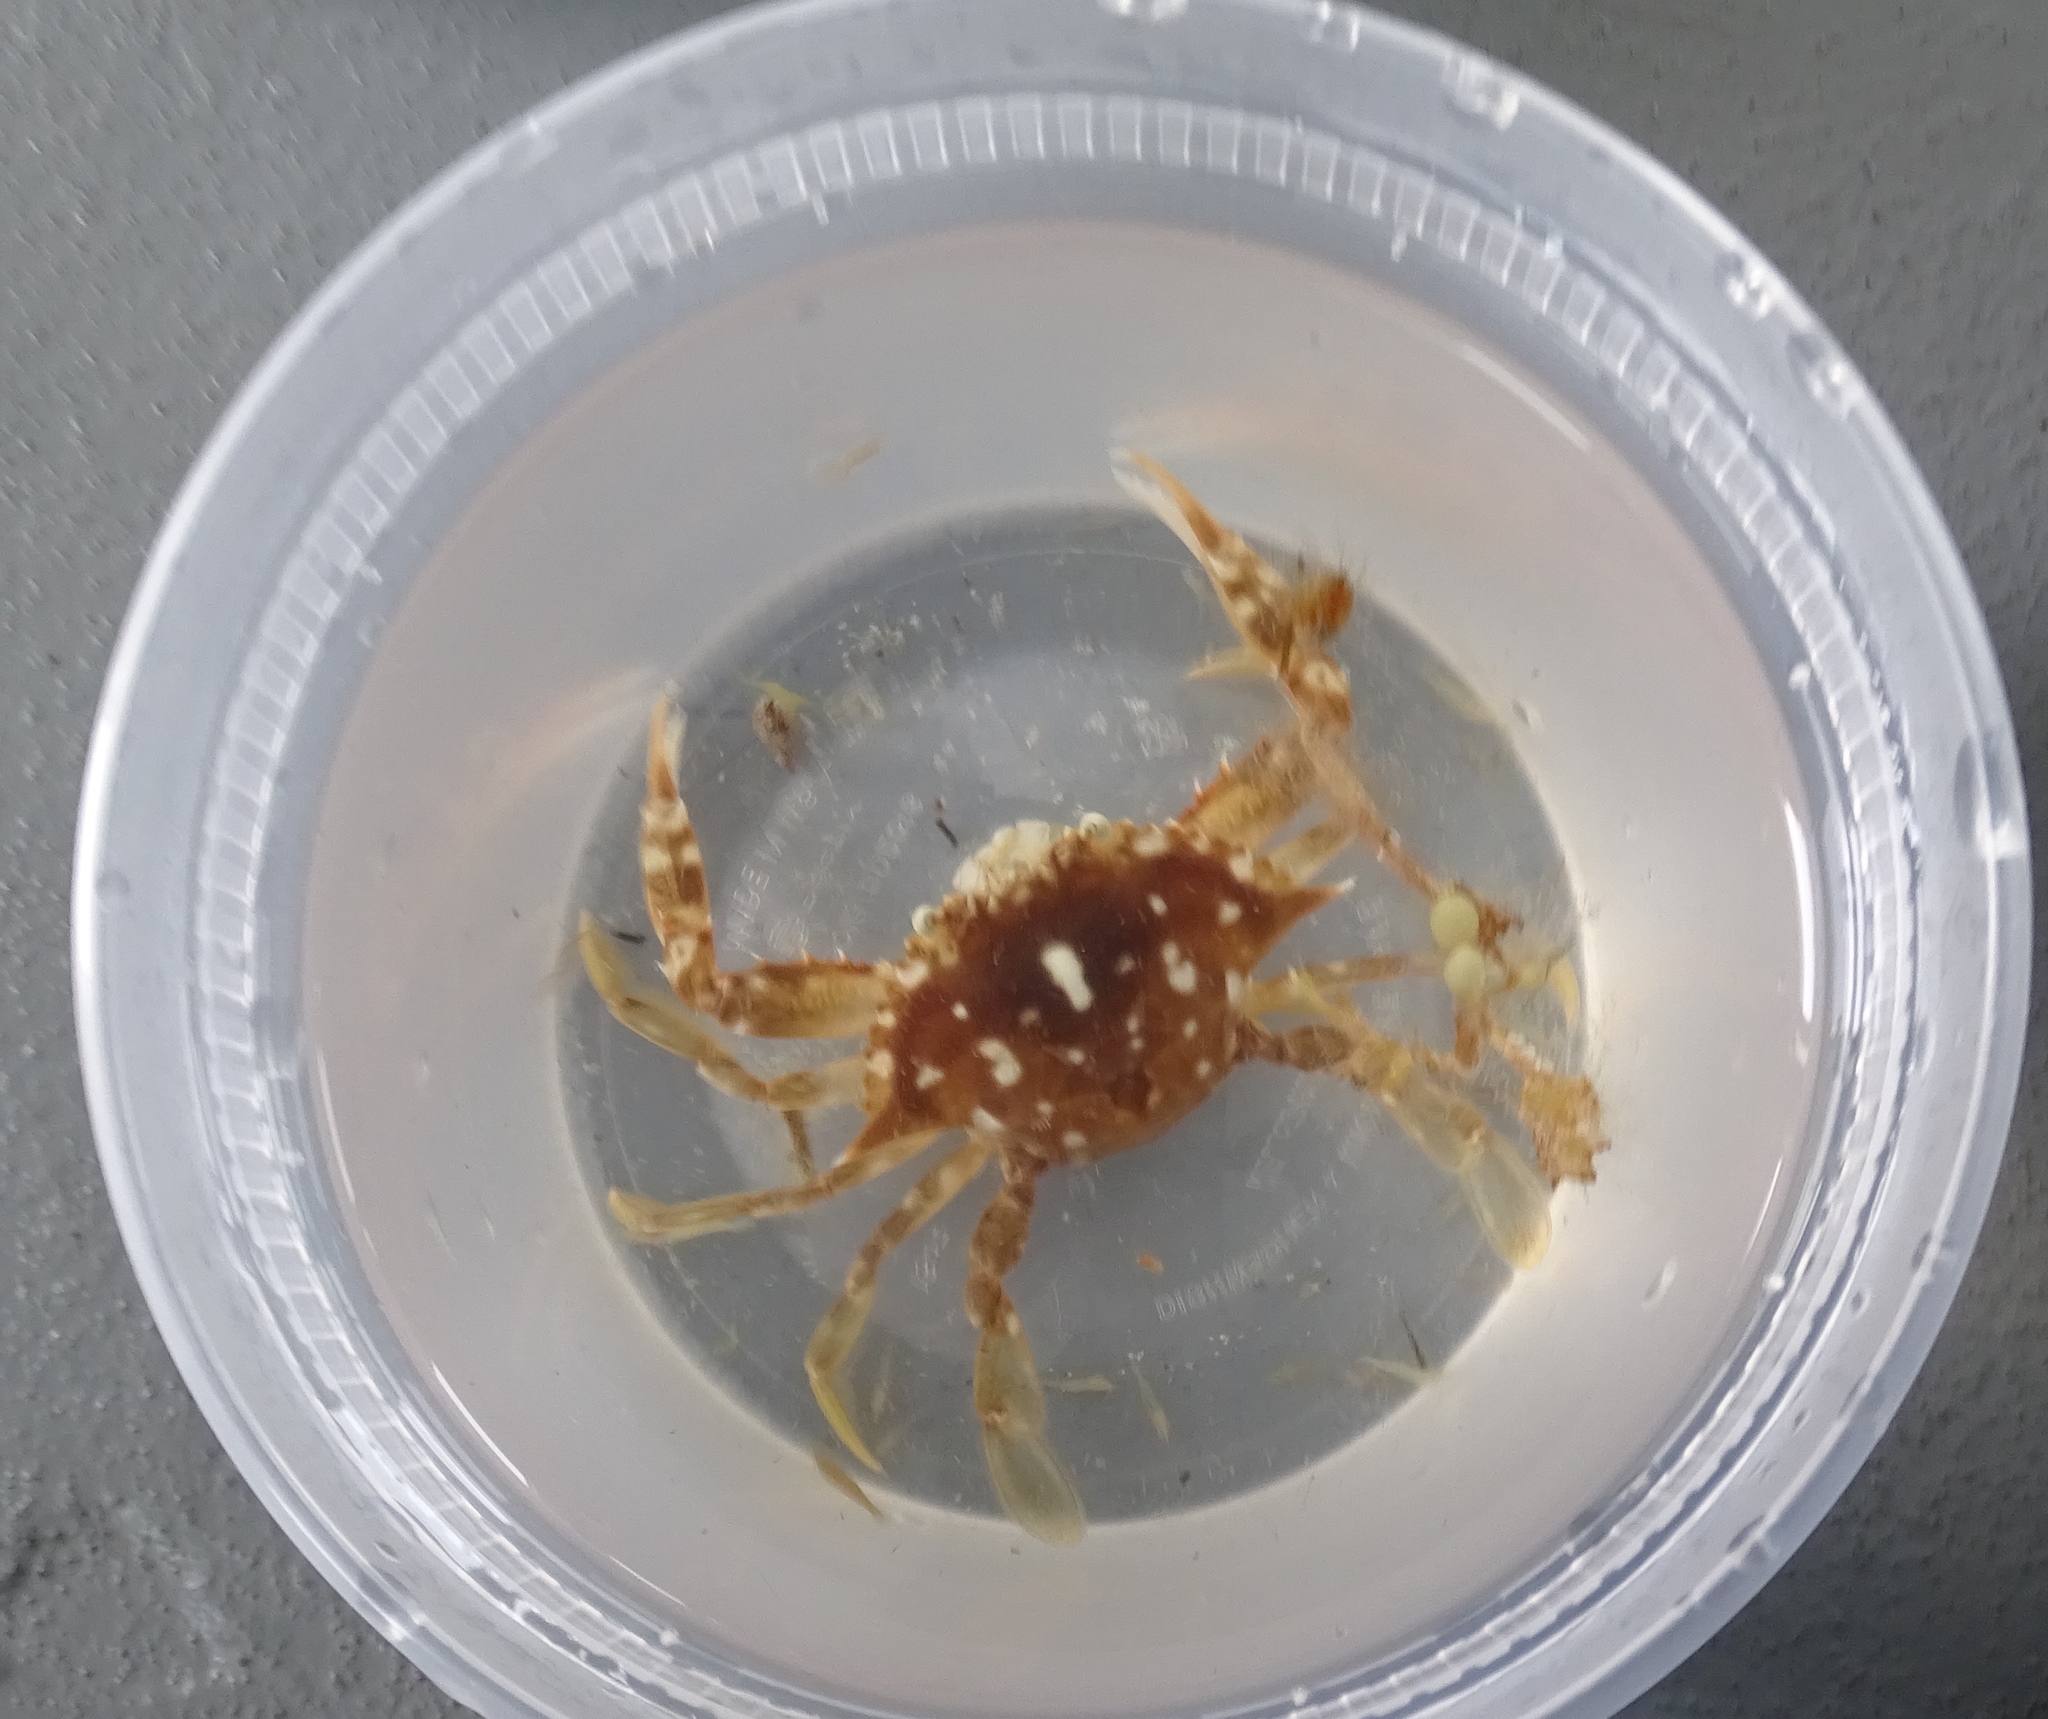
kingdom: Animalia
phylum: Arthropoda
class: Malacostraca
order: Decapoda
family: Portunidae
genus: Portunus
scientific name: Portunus sayi
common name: Sargassum crab
